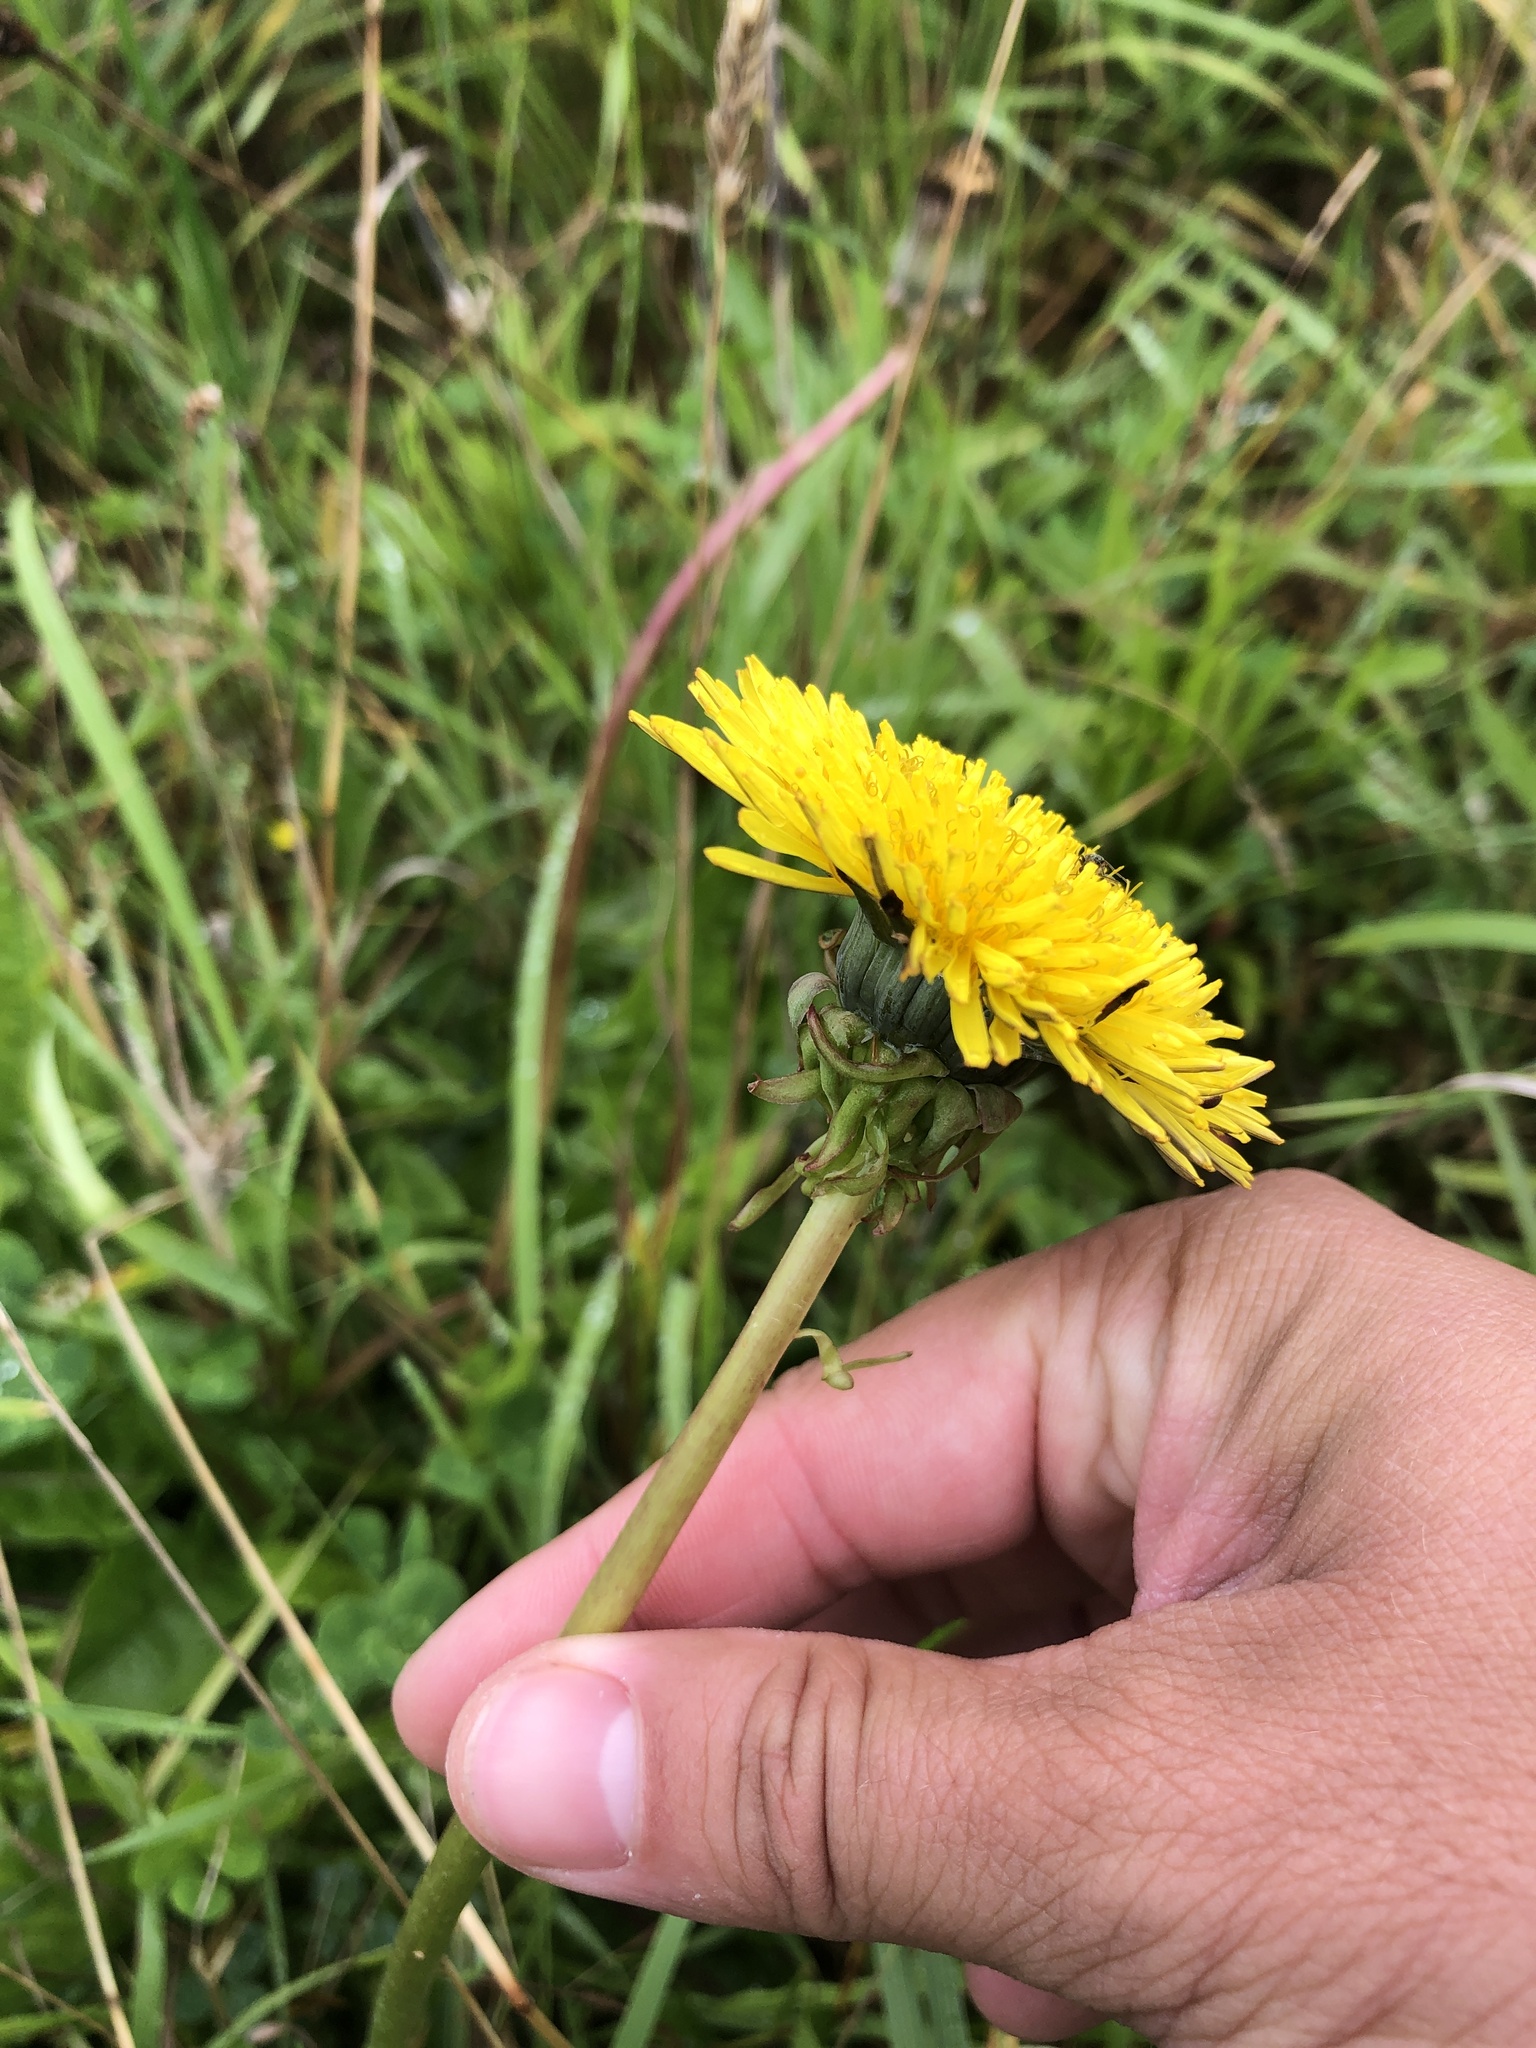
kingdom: Plantae
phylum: Tracheophyta
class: Magnoliopsida
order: Asterales
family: Asteraceae
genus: Taraxacum
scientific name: Taraxacum officinale
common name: Common dandelion
